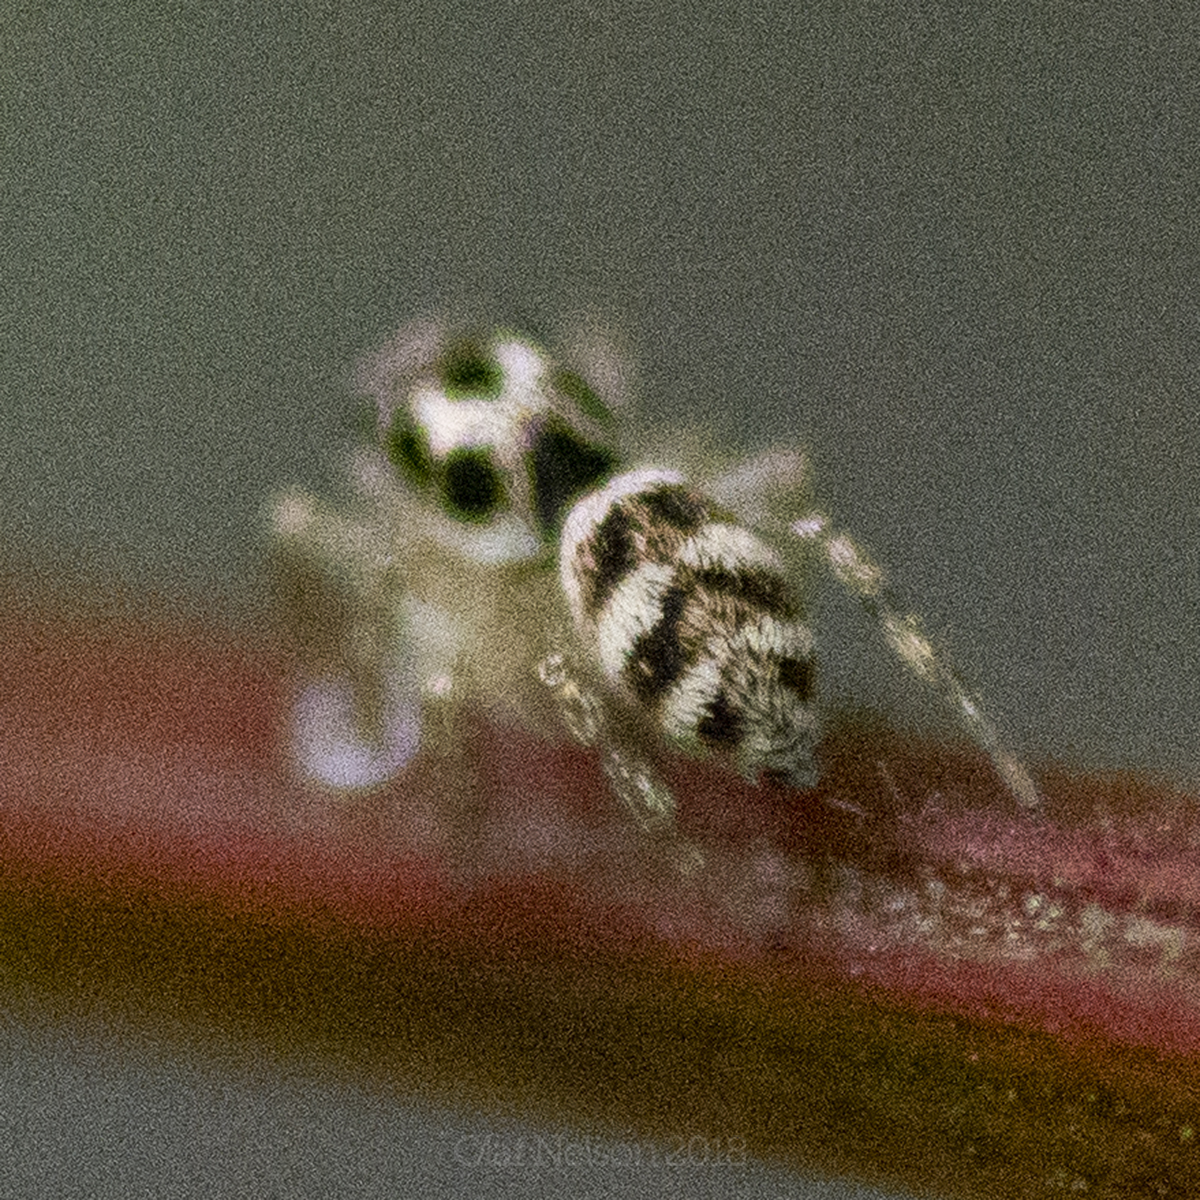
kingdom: Animalia
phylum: Arthropoda
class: Arachnida
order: Araneae
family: Salticidae
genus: Salticus
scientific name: Salticus scenicus
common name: Zebra jumper
